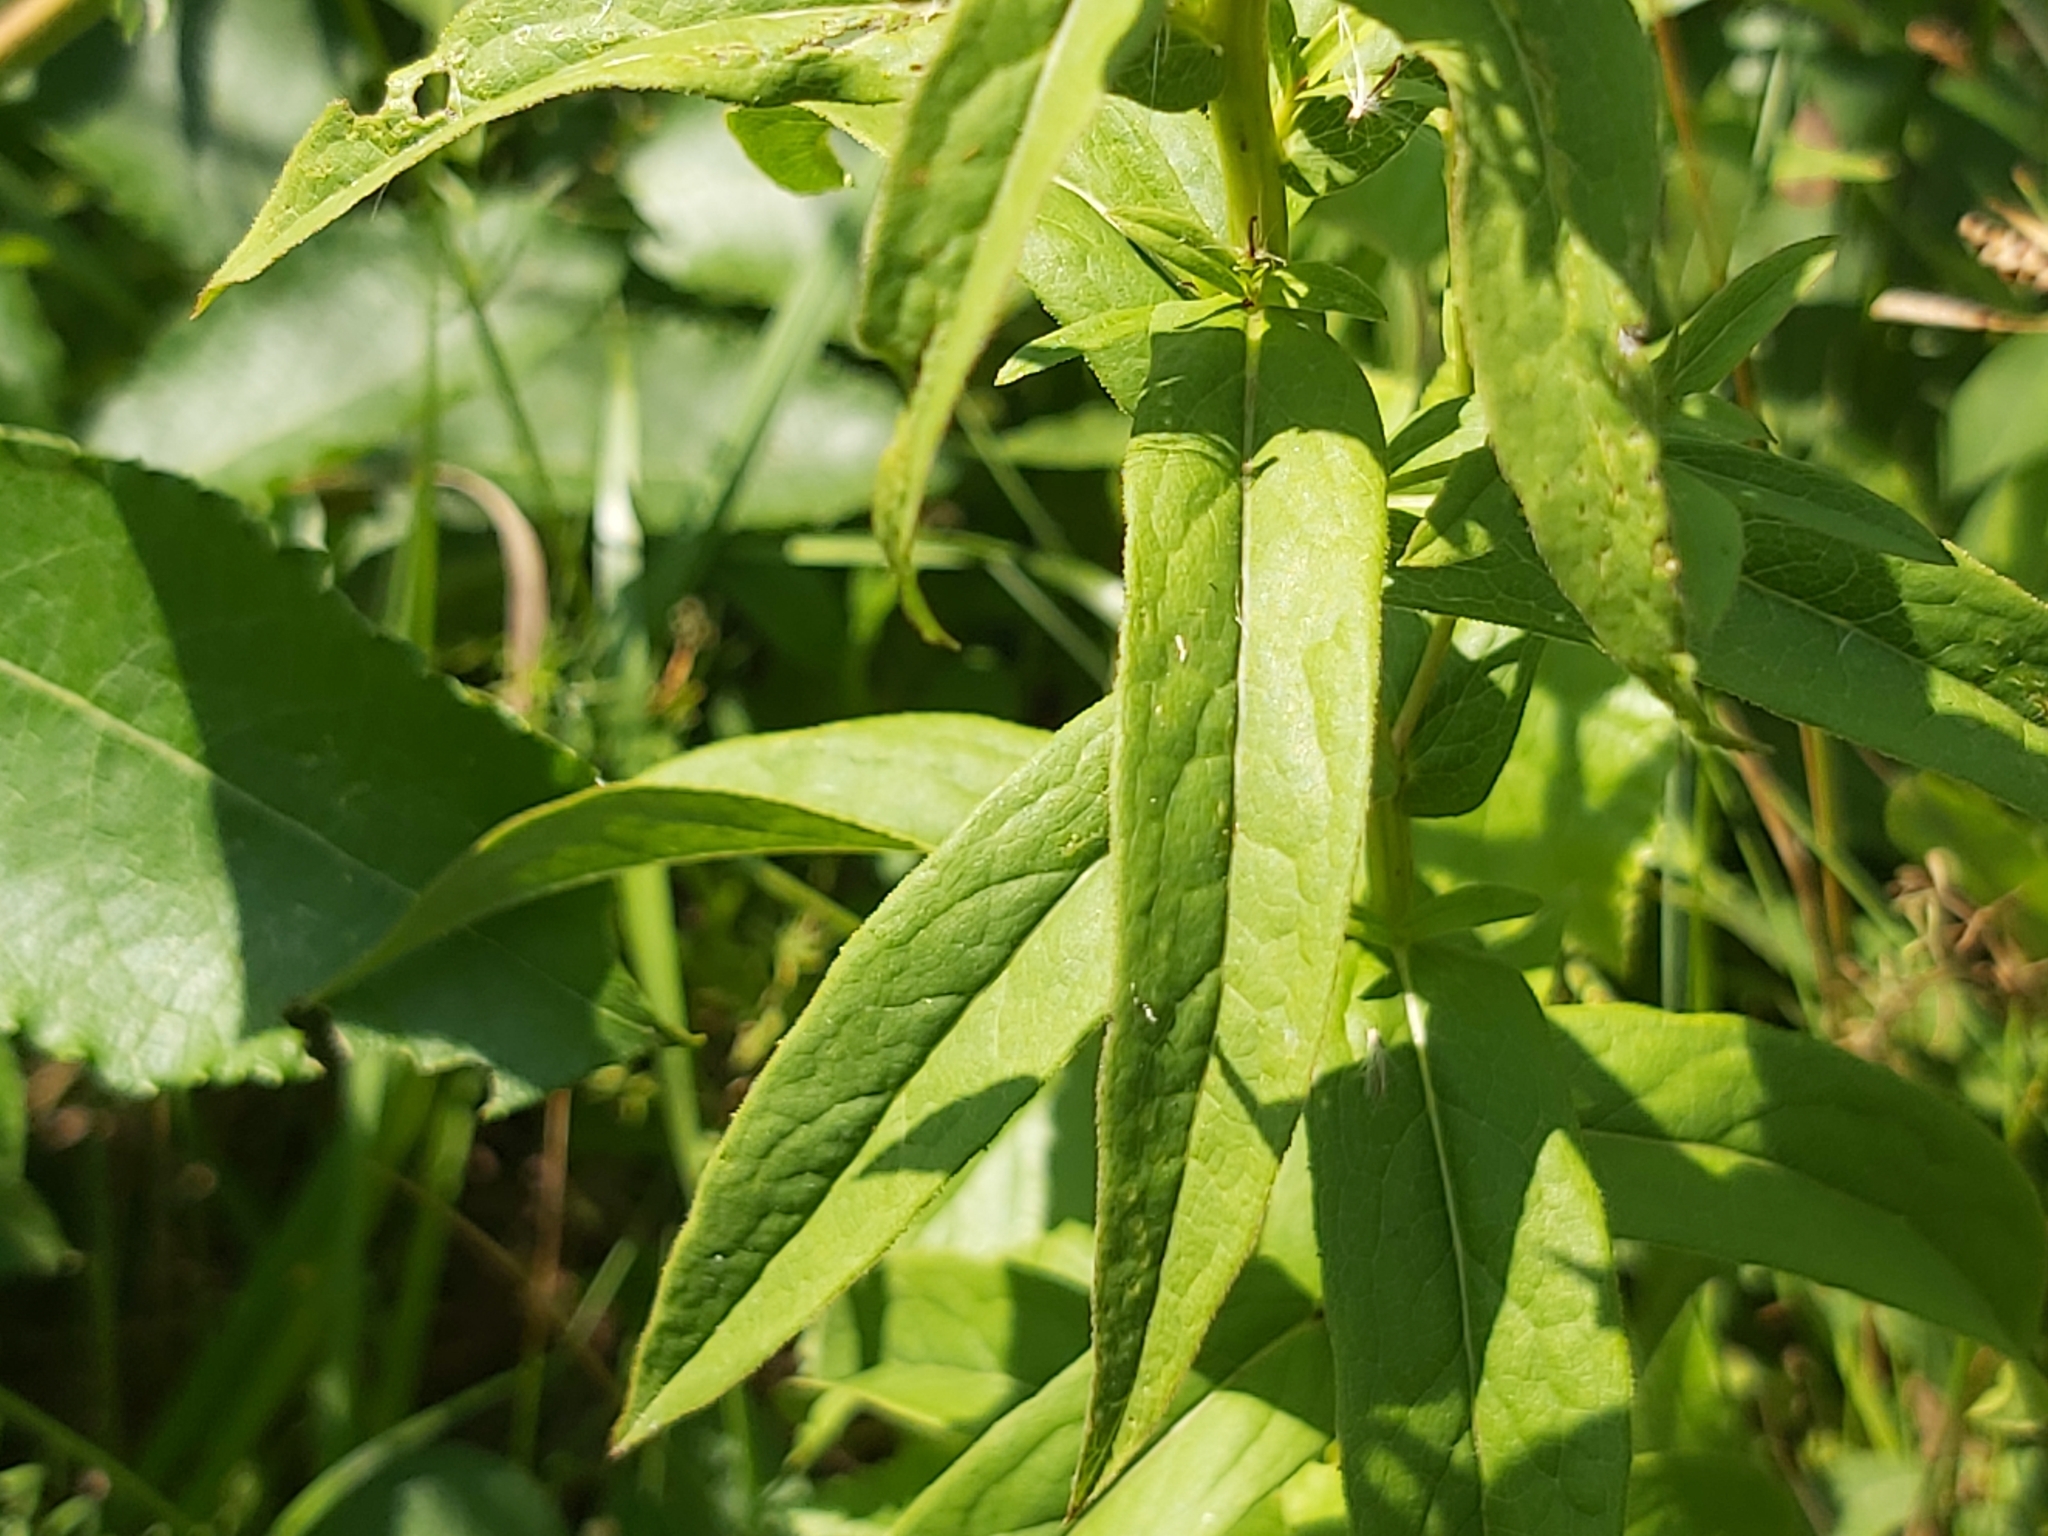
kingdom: Plantae
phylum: Tracheophyta
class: Magnoliopsida
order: Asterales
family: Asteraceae
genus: Pentanema
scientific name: Pentanema salicinum
